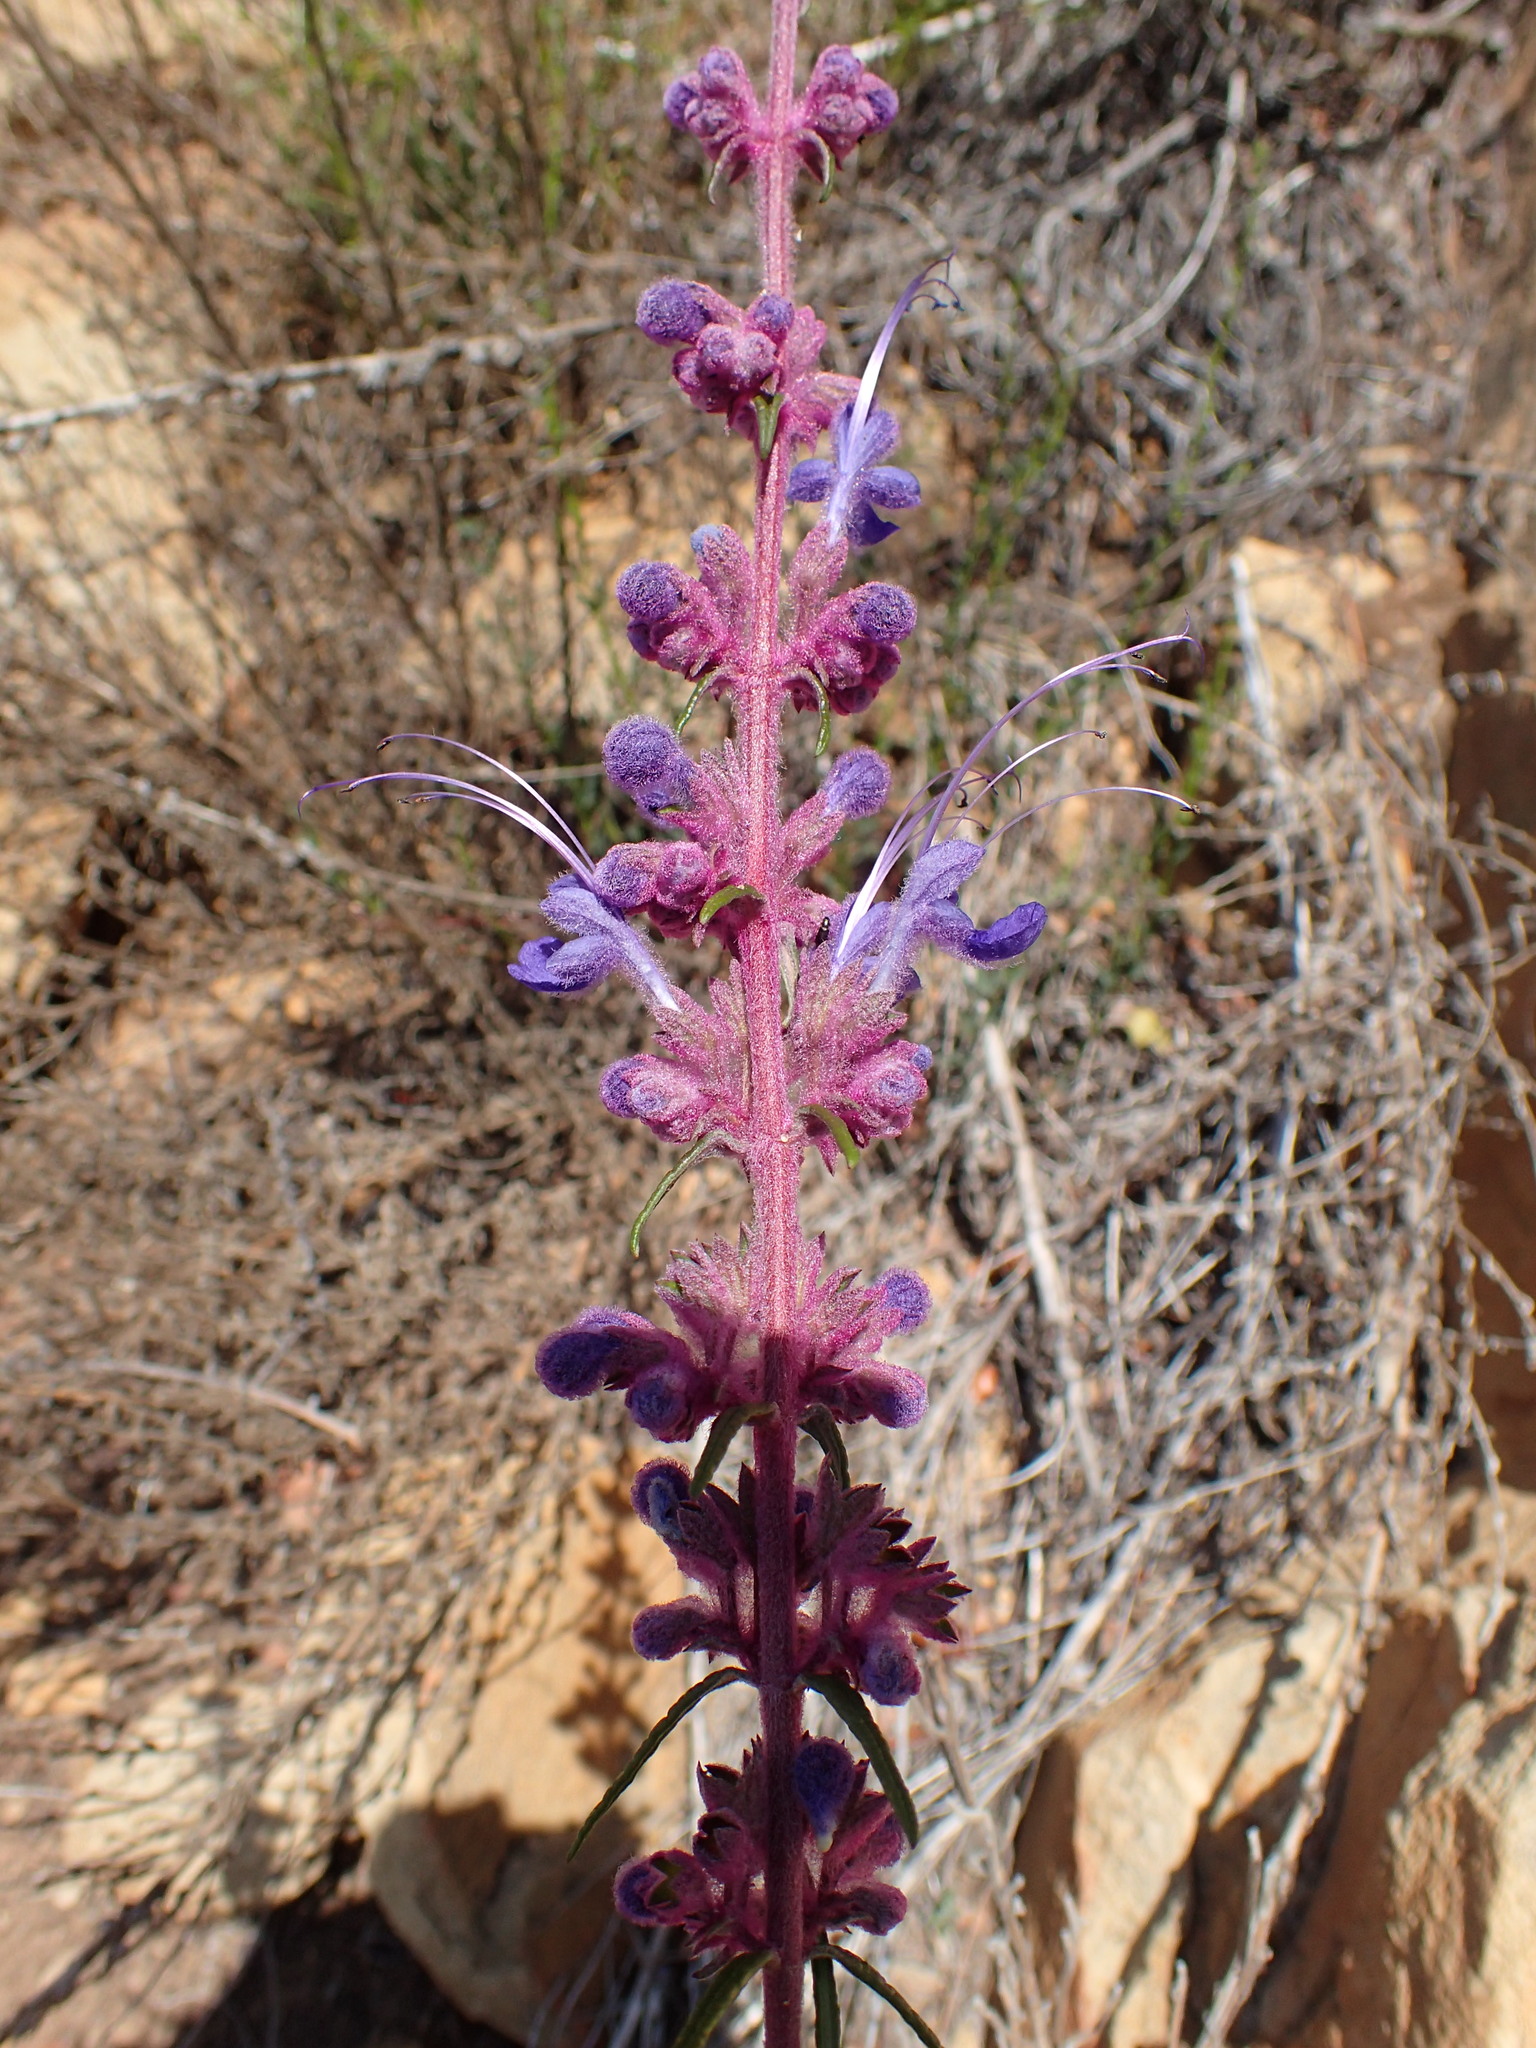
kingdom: Plantae
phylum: Tracheophyta
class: Magnoliopsida
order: Lamiales
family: Lamiaceae
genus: Trichostema
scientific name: Trichostema lanatum
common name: Woolly bluecurls
